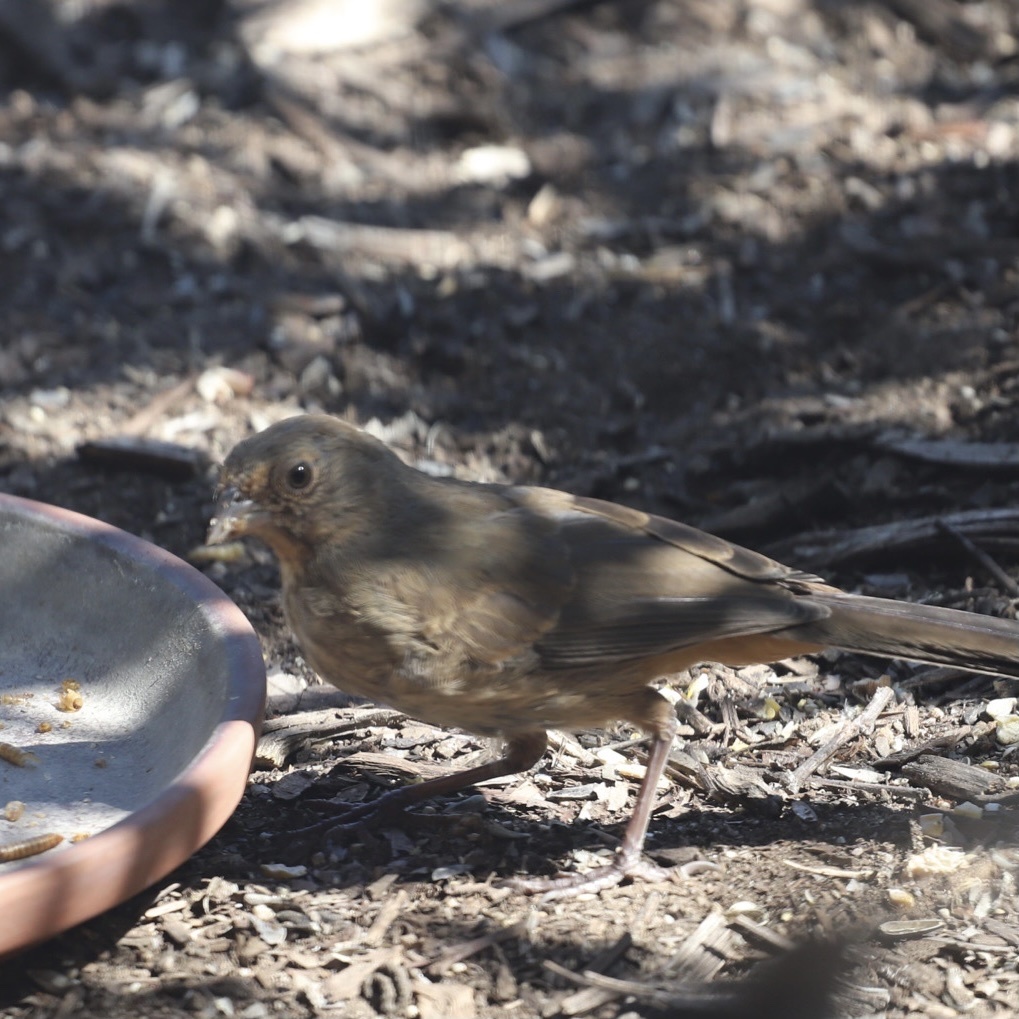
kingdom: Animalia
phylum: Chordata
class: Aves
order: Passeriformes
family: Passerellidae
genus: Melozone
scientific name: Melozone crissalis
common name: California towhee
